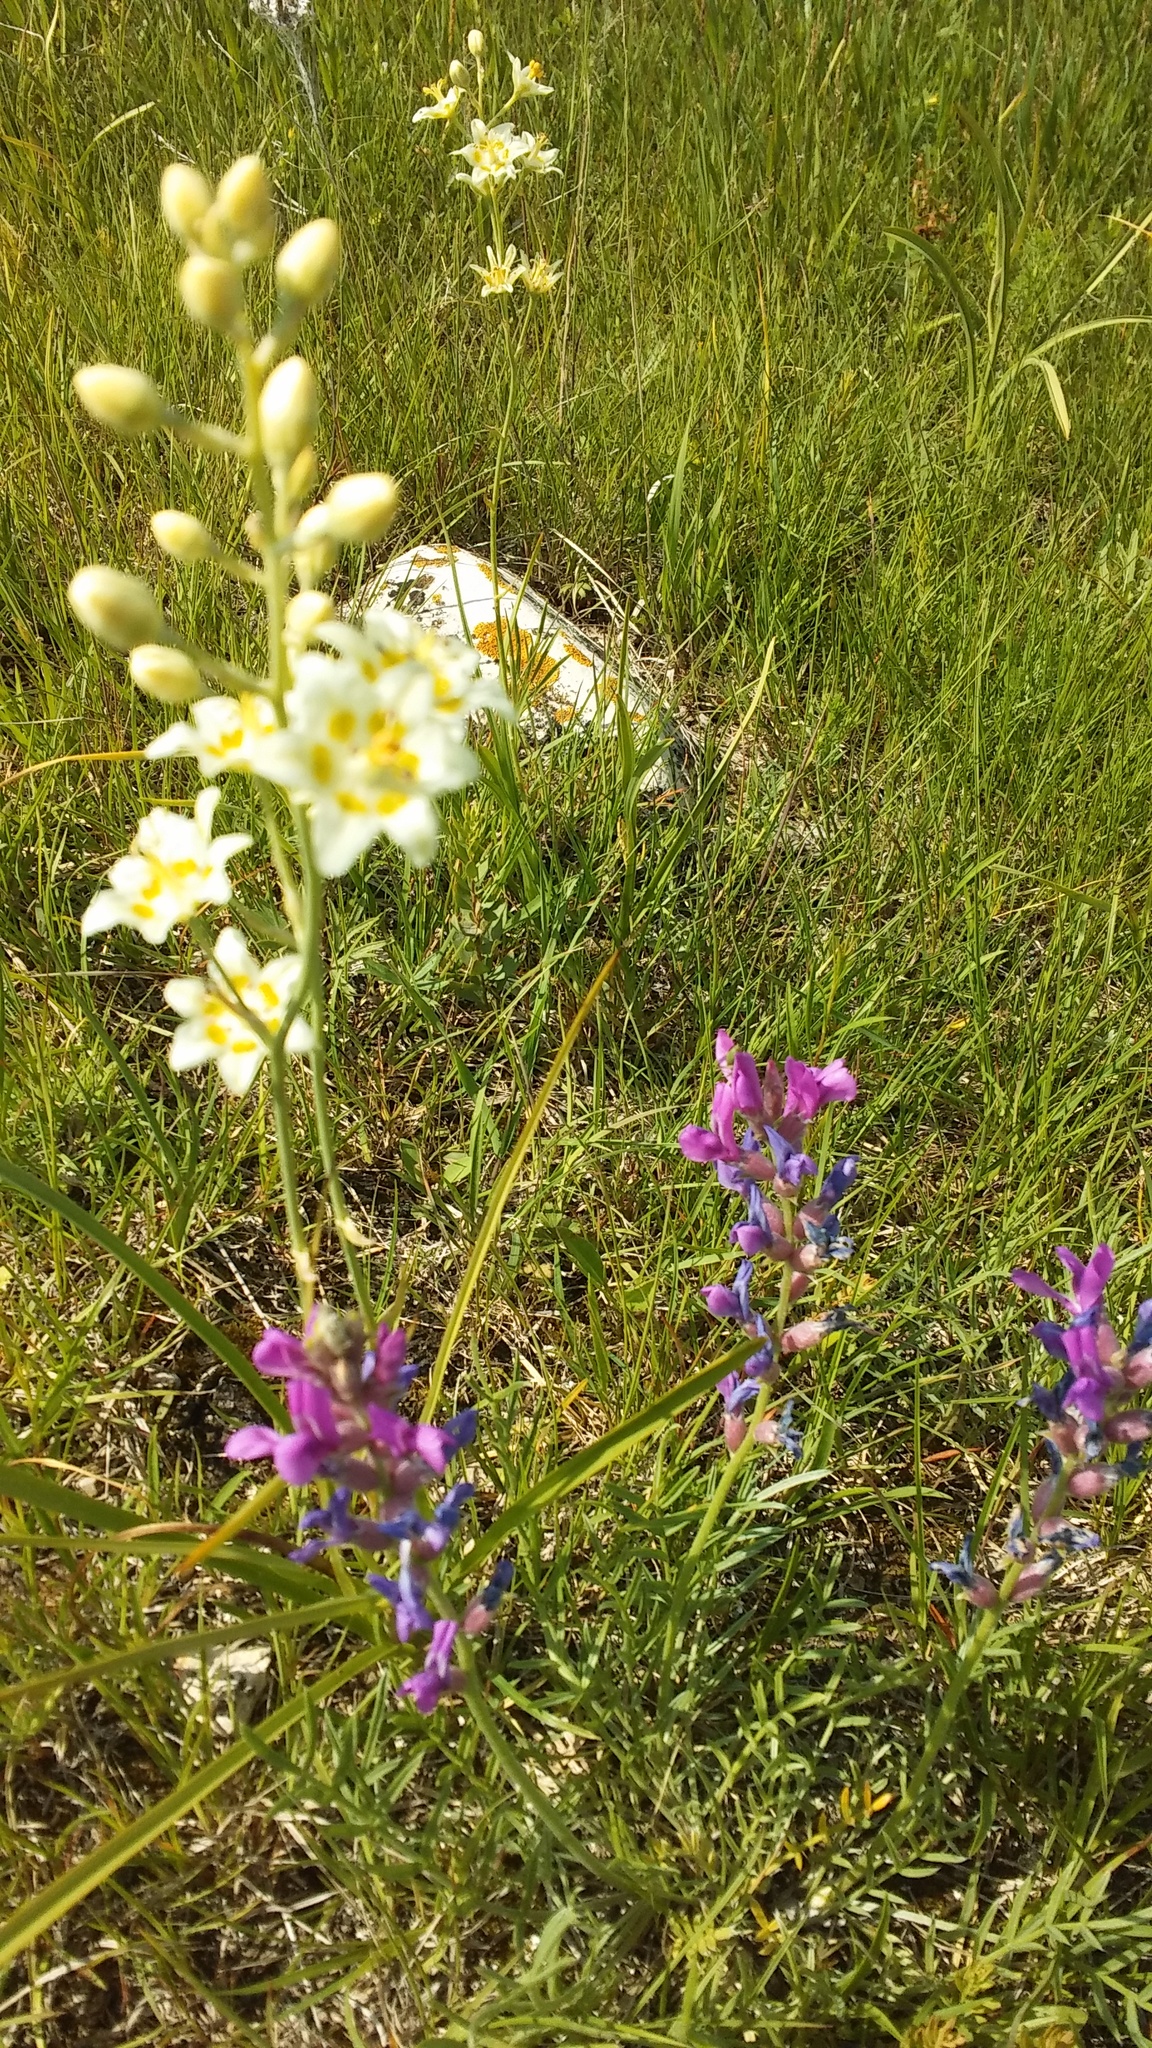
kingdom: Plantae
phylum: Tracheophyta
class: Liliopsida
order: Liliales
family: Melanthiaceae
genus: Anticlea
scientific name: Anticlea elegans
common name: Mountain death camas
